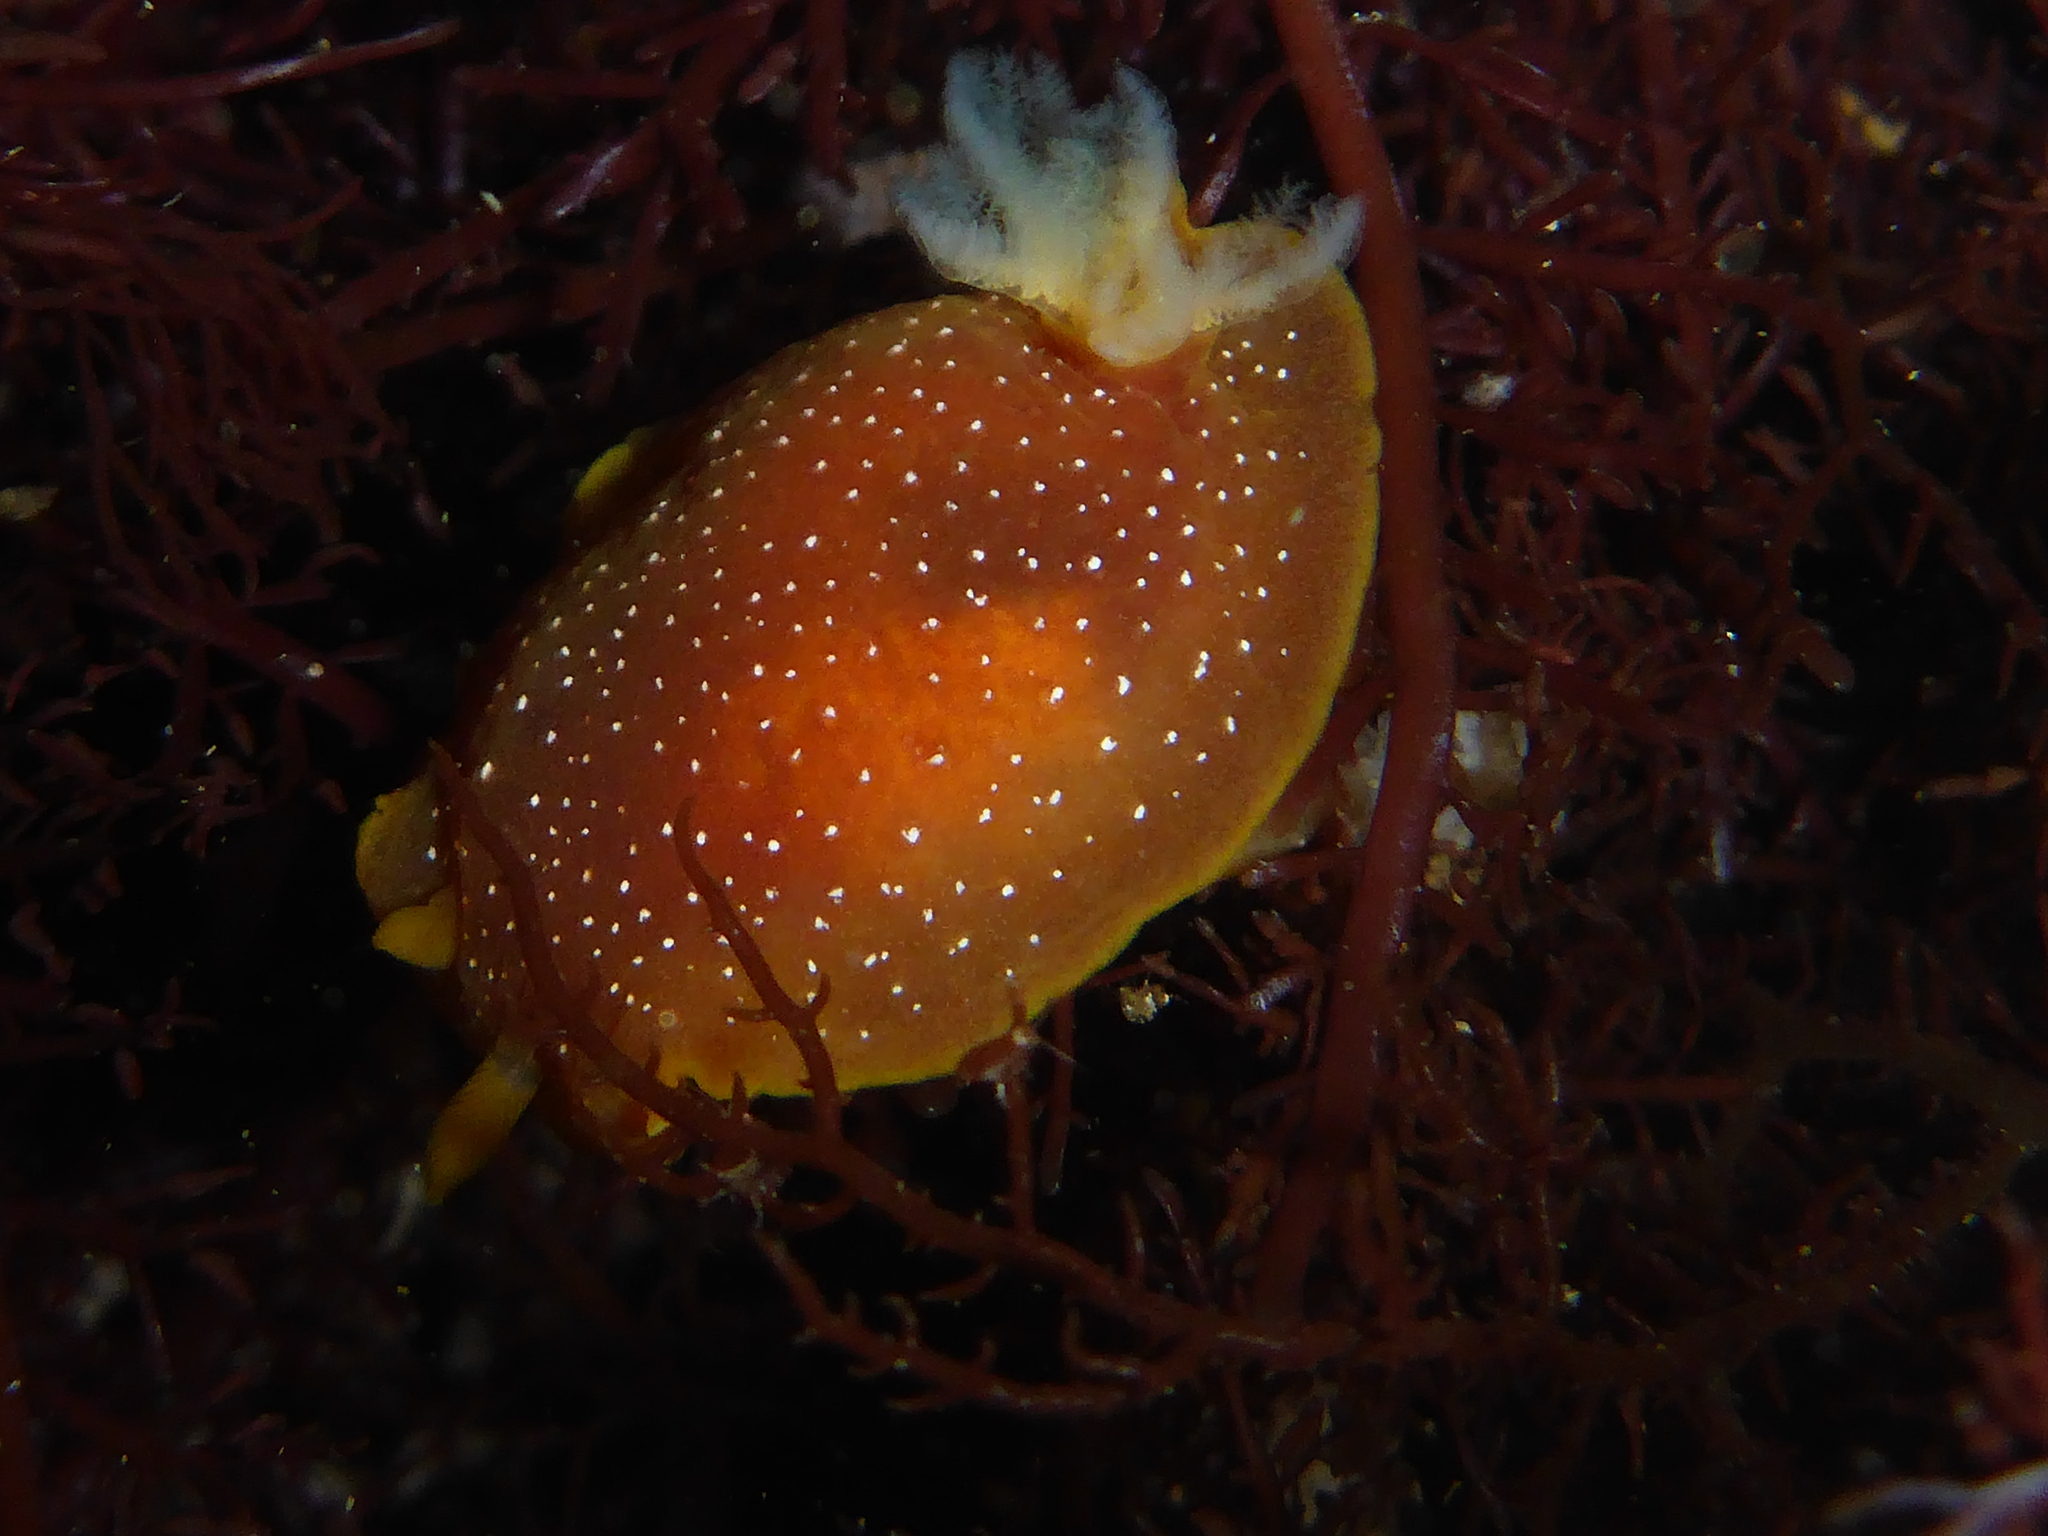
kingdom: Animalia
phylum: Mollusca
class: Gastropoda
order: Nudibranchia
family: Dendrodorididae
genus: Doriopsilla
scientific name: Doriopsilla fulva
